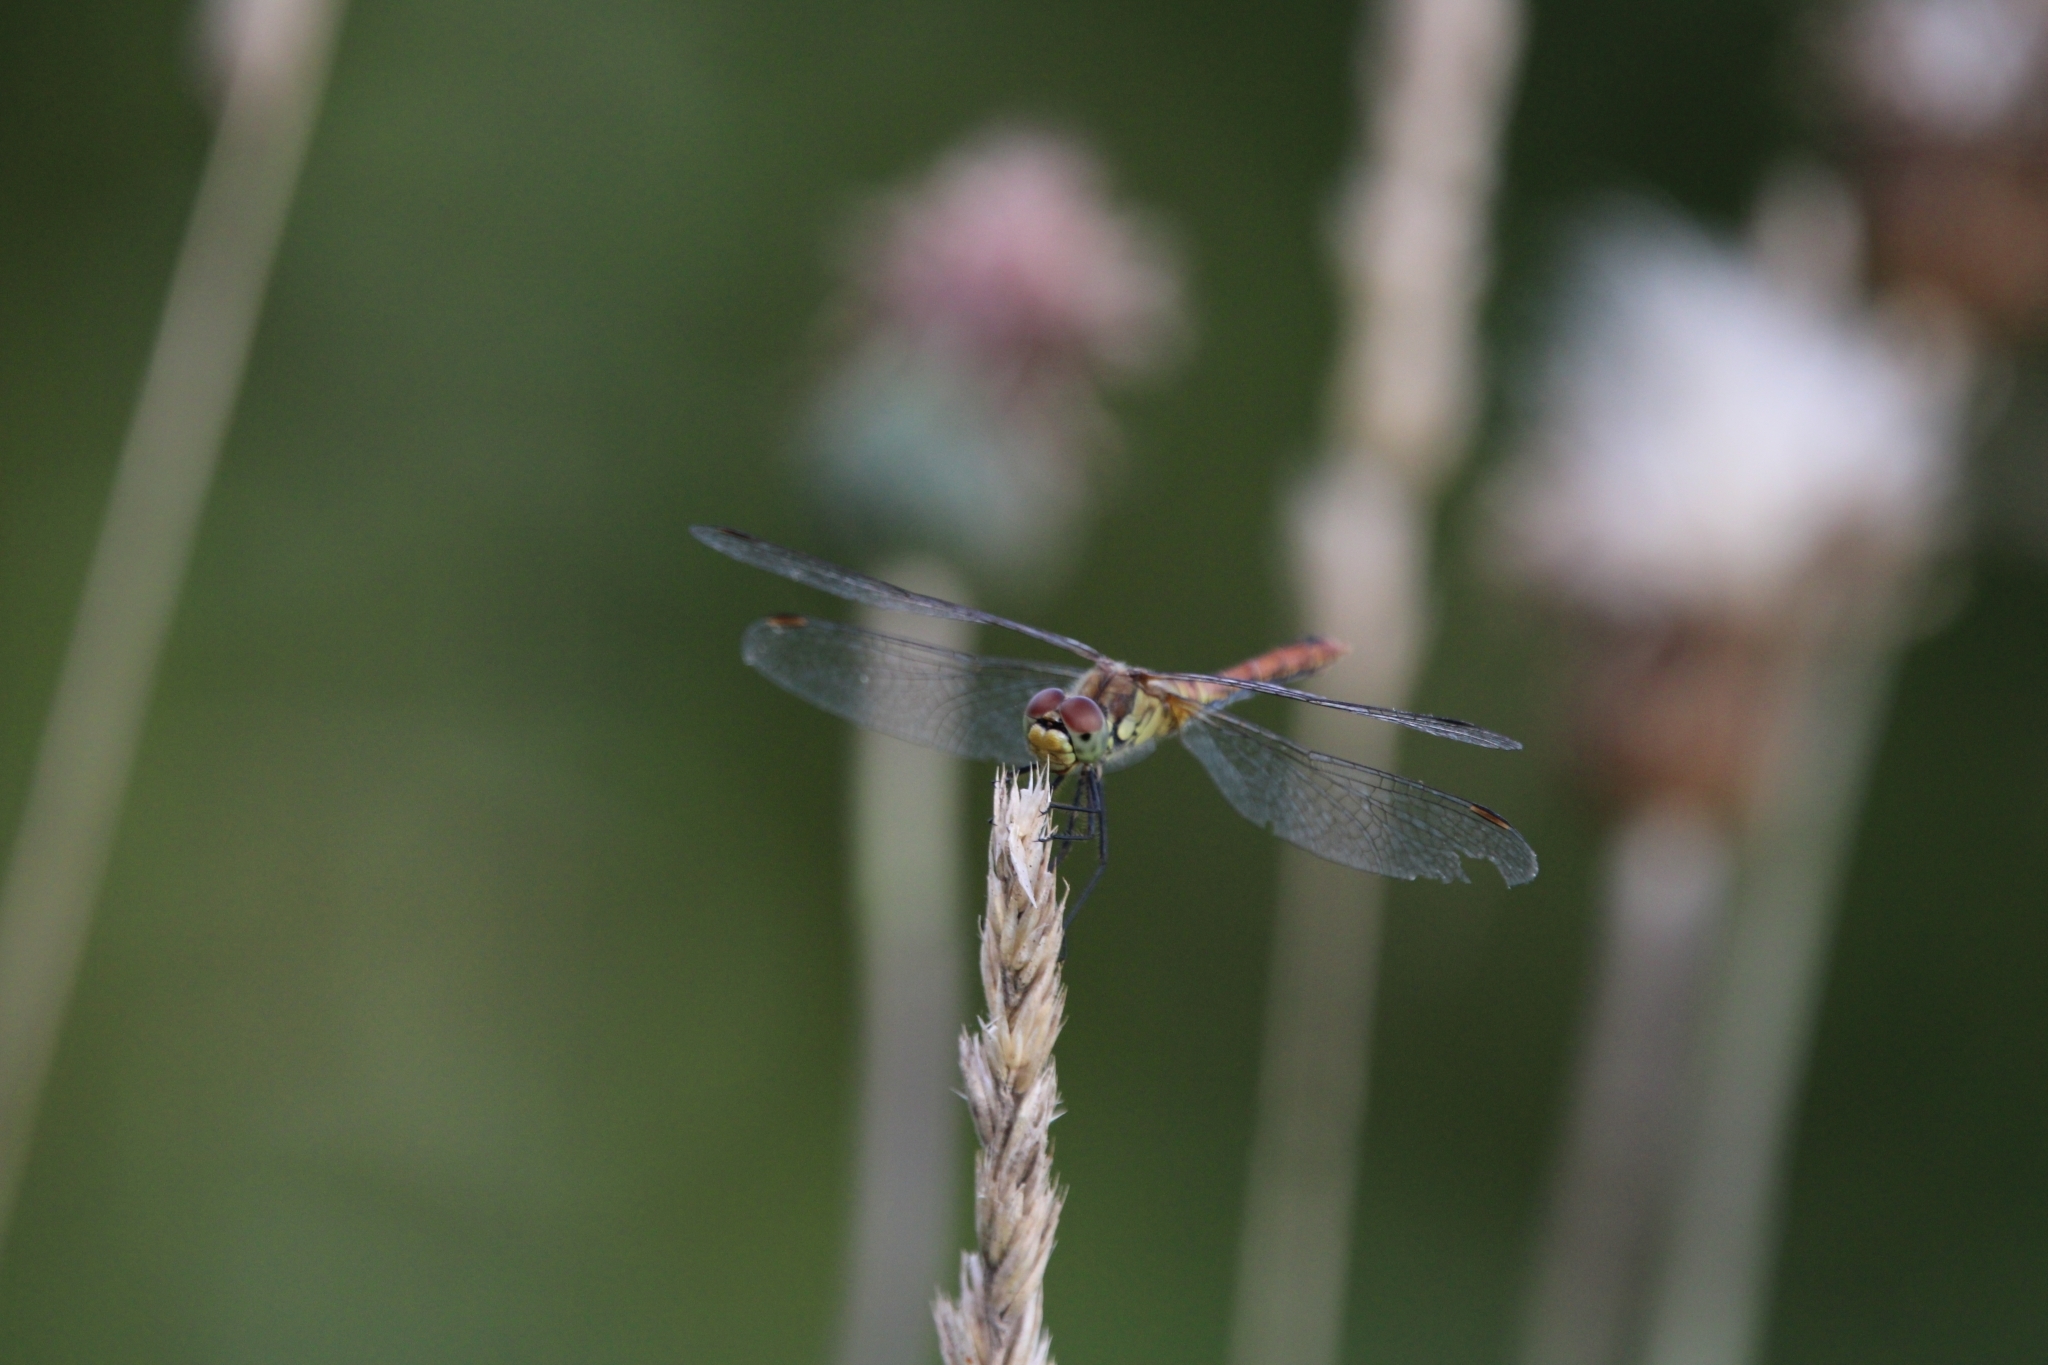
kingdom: Animalia
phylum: Arthropoda
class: Insecta
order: Odonata
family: Libellulidae
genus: Sympetrum
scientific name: Sympetrum sanguineum
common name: Ruddy darter
